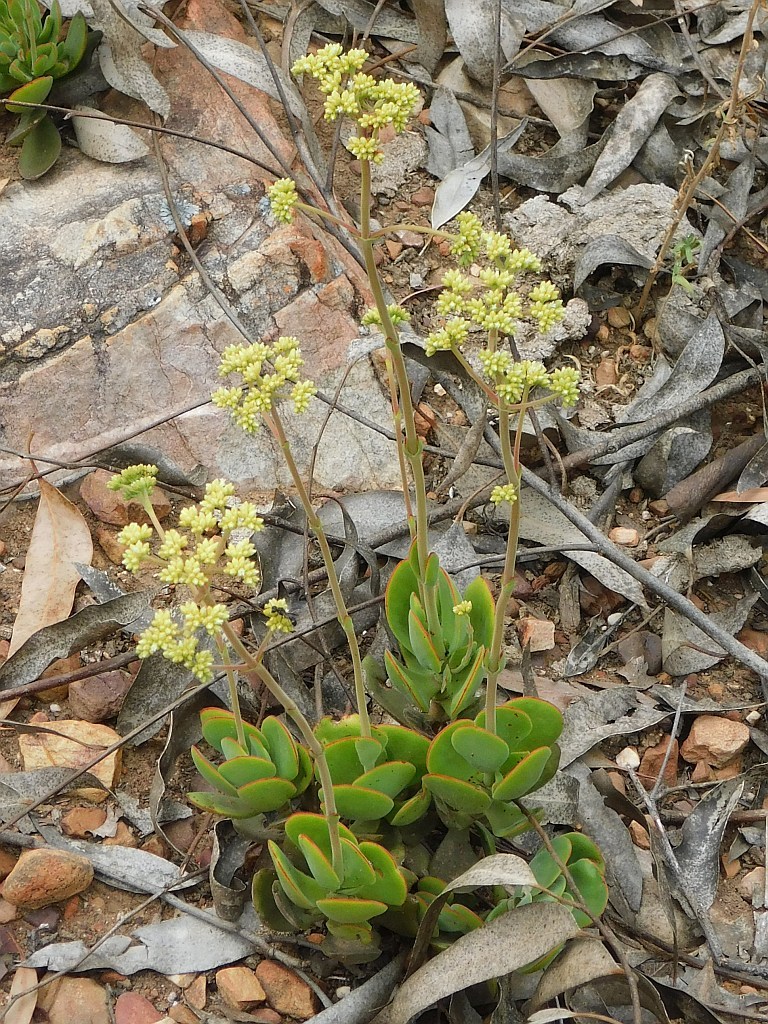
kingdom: Plantae
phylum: Tracheophyta
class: Magnoliopsida
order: Saxifragales
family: Crassulaceae
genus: Crassula
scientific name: Crassula atropurpurea
